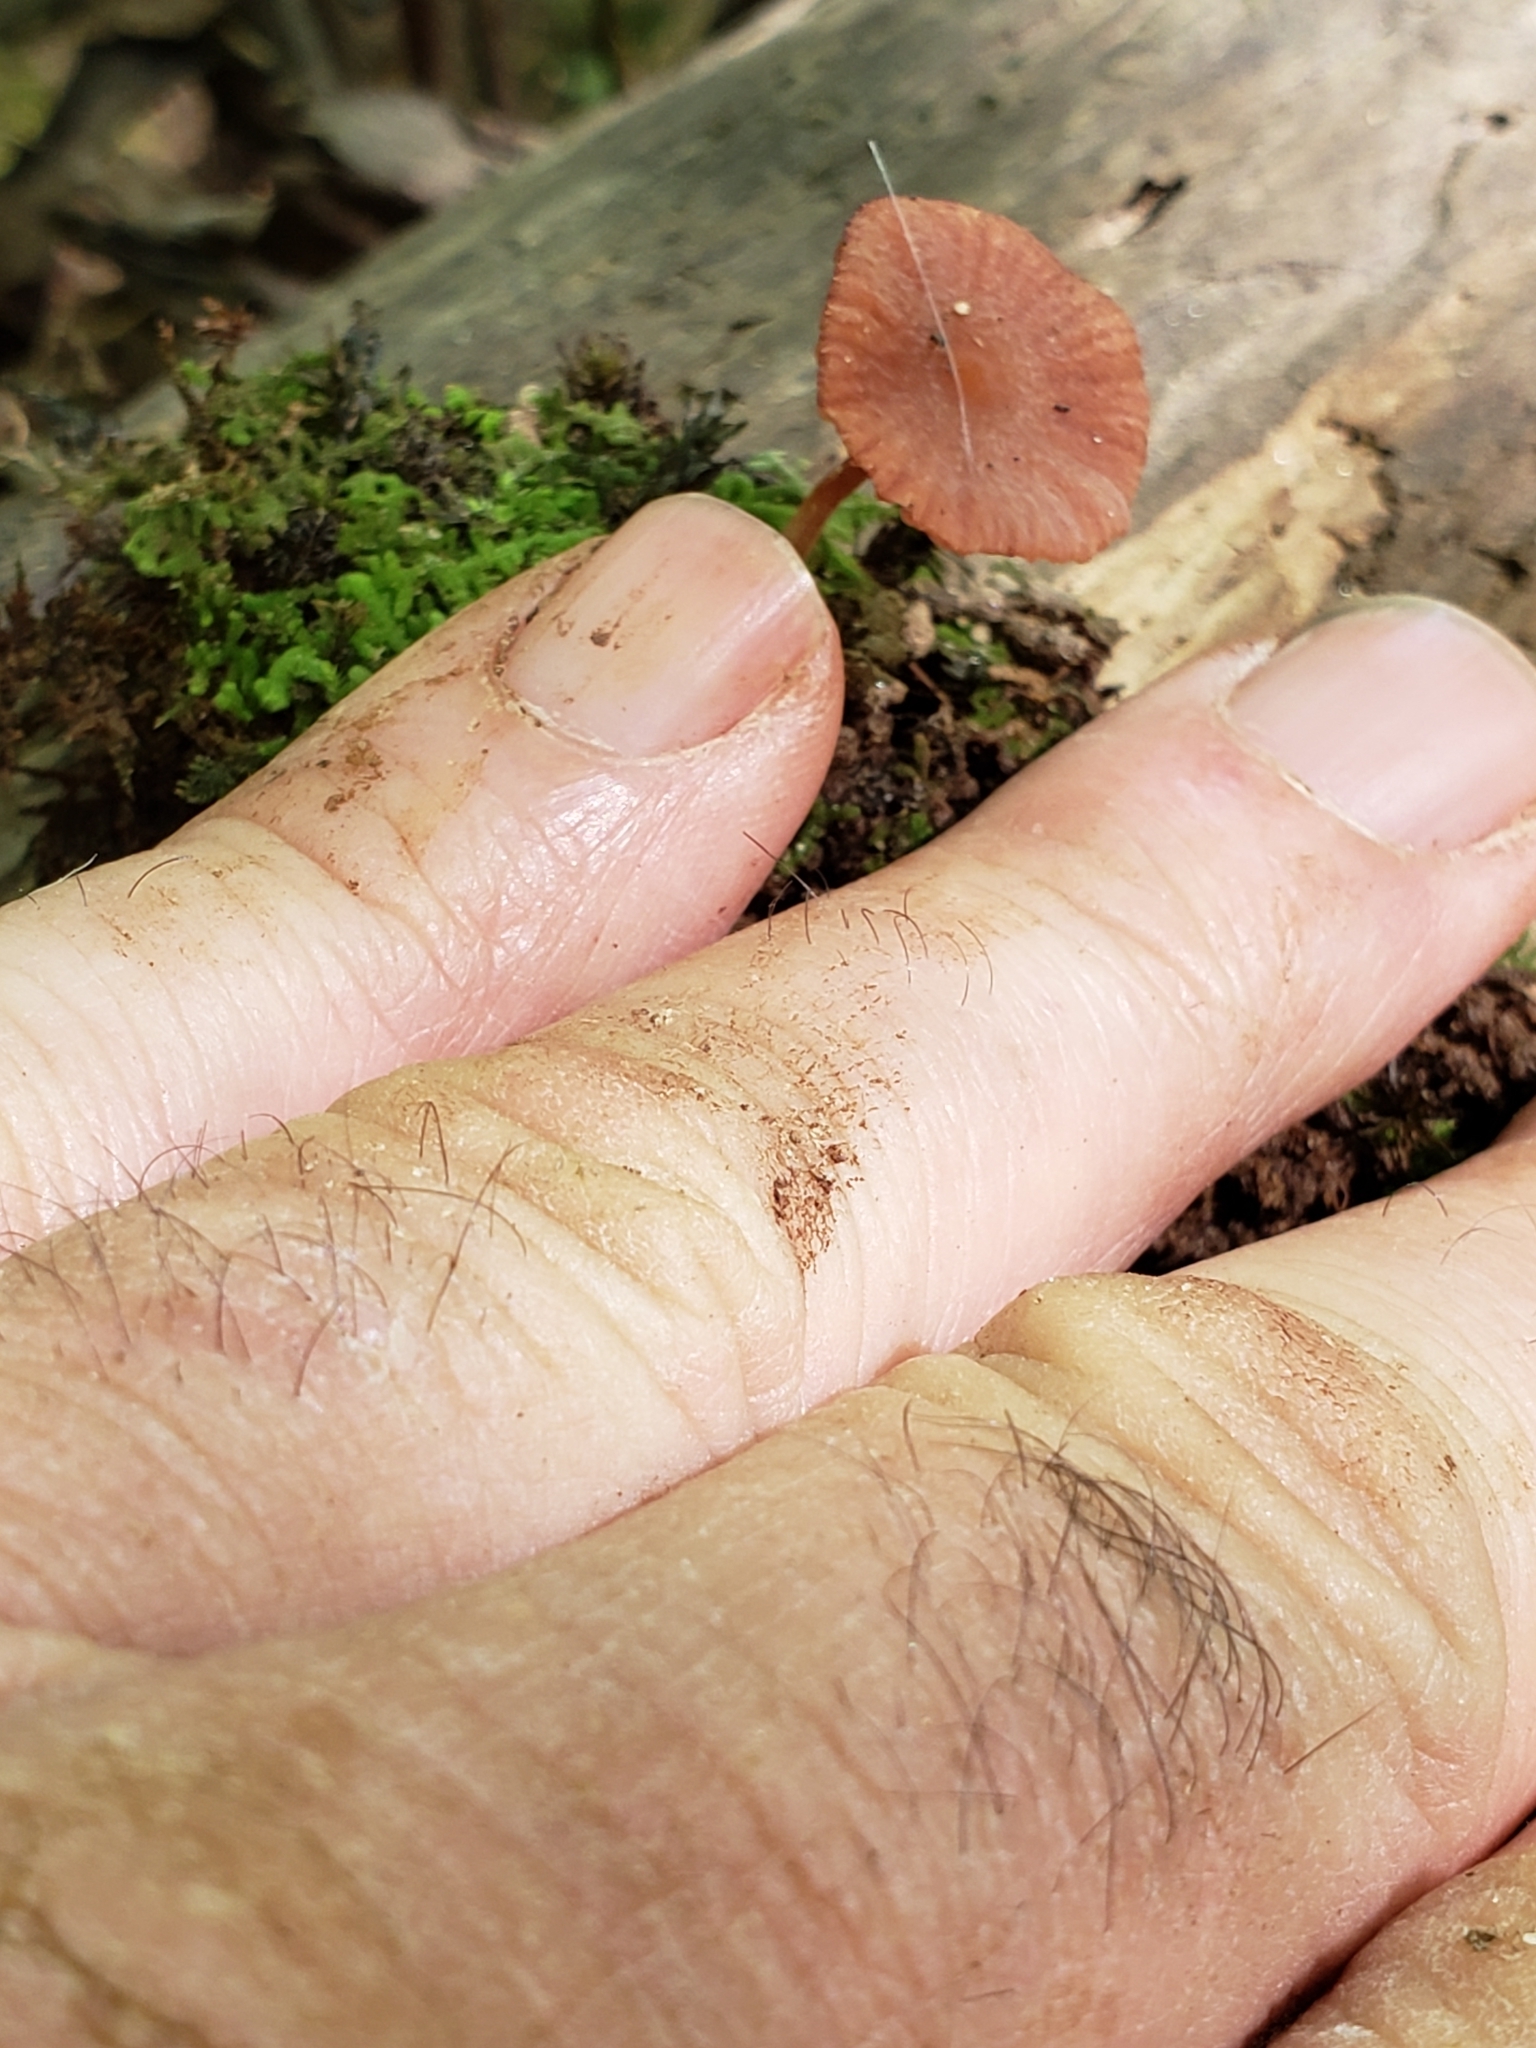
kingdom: Fungi
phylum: Basidiomycota
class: Agaricomycetes
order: Agaricales
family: Hydnangiaceae
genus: Laccaria
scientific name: Laccaria laccata
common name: Deceiver
